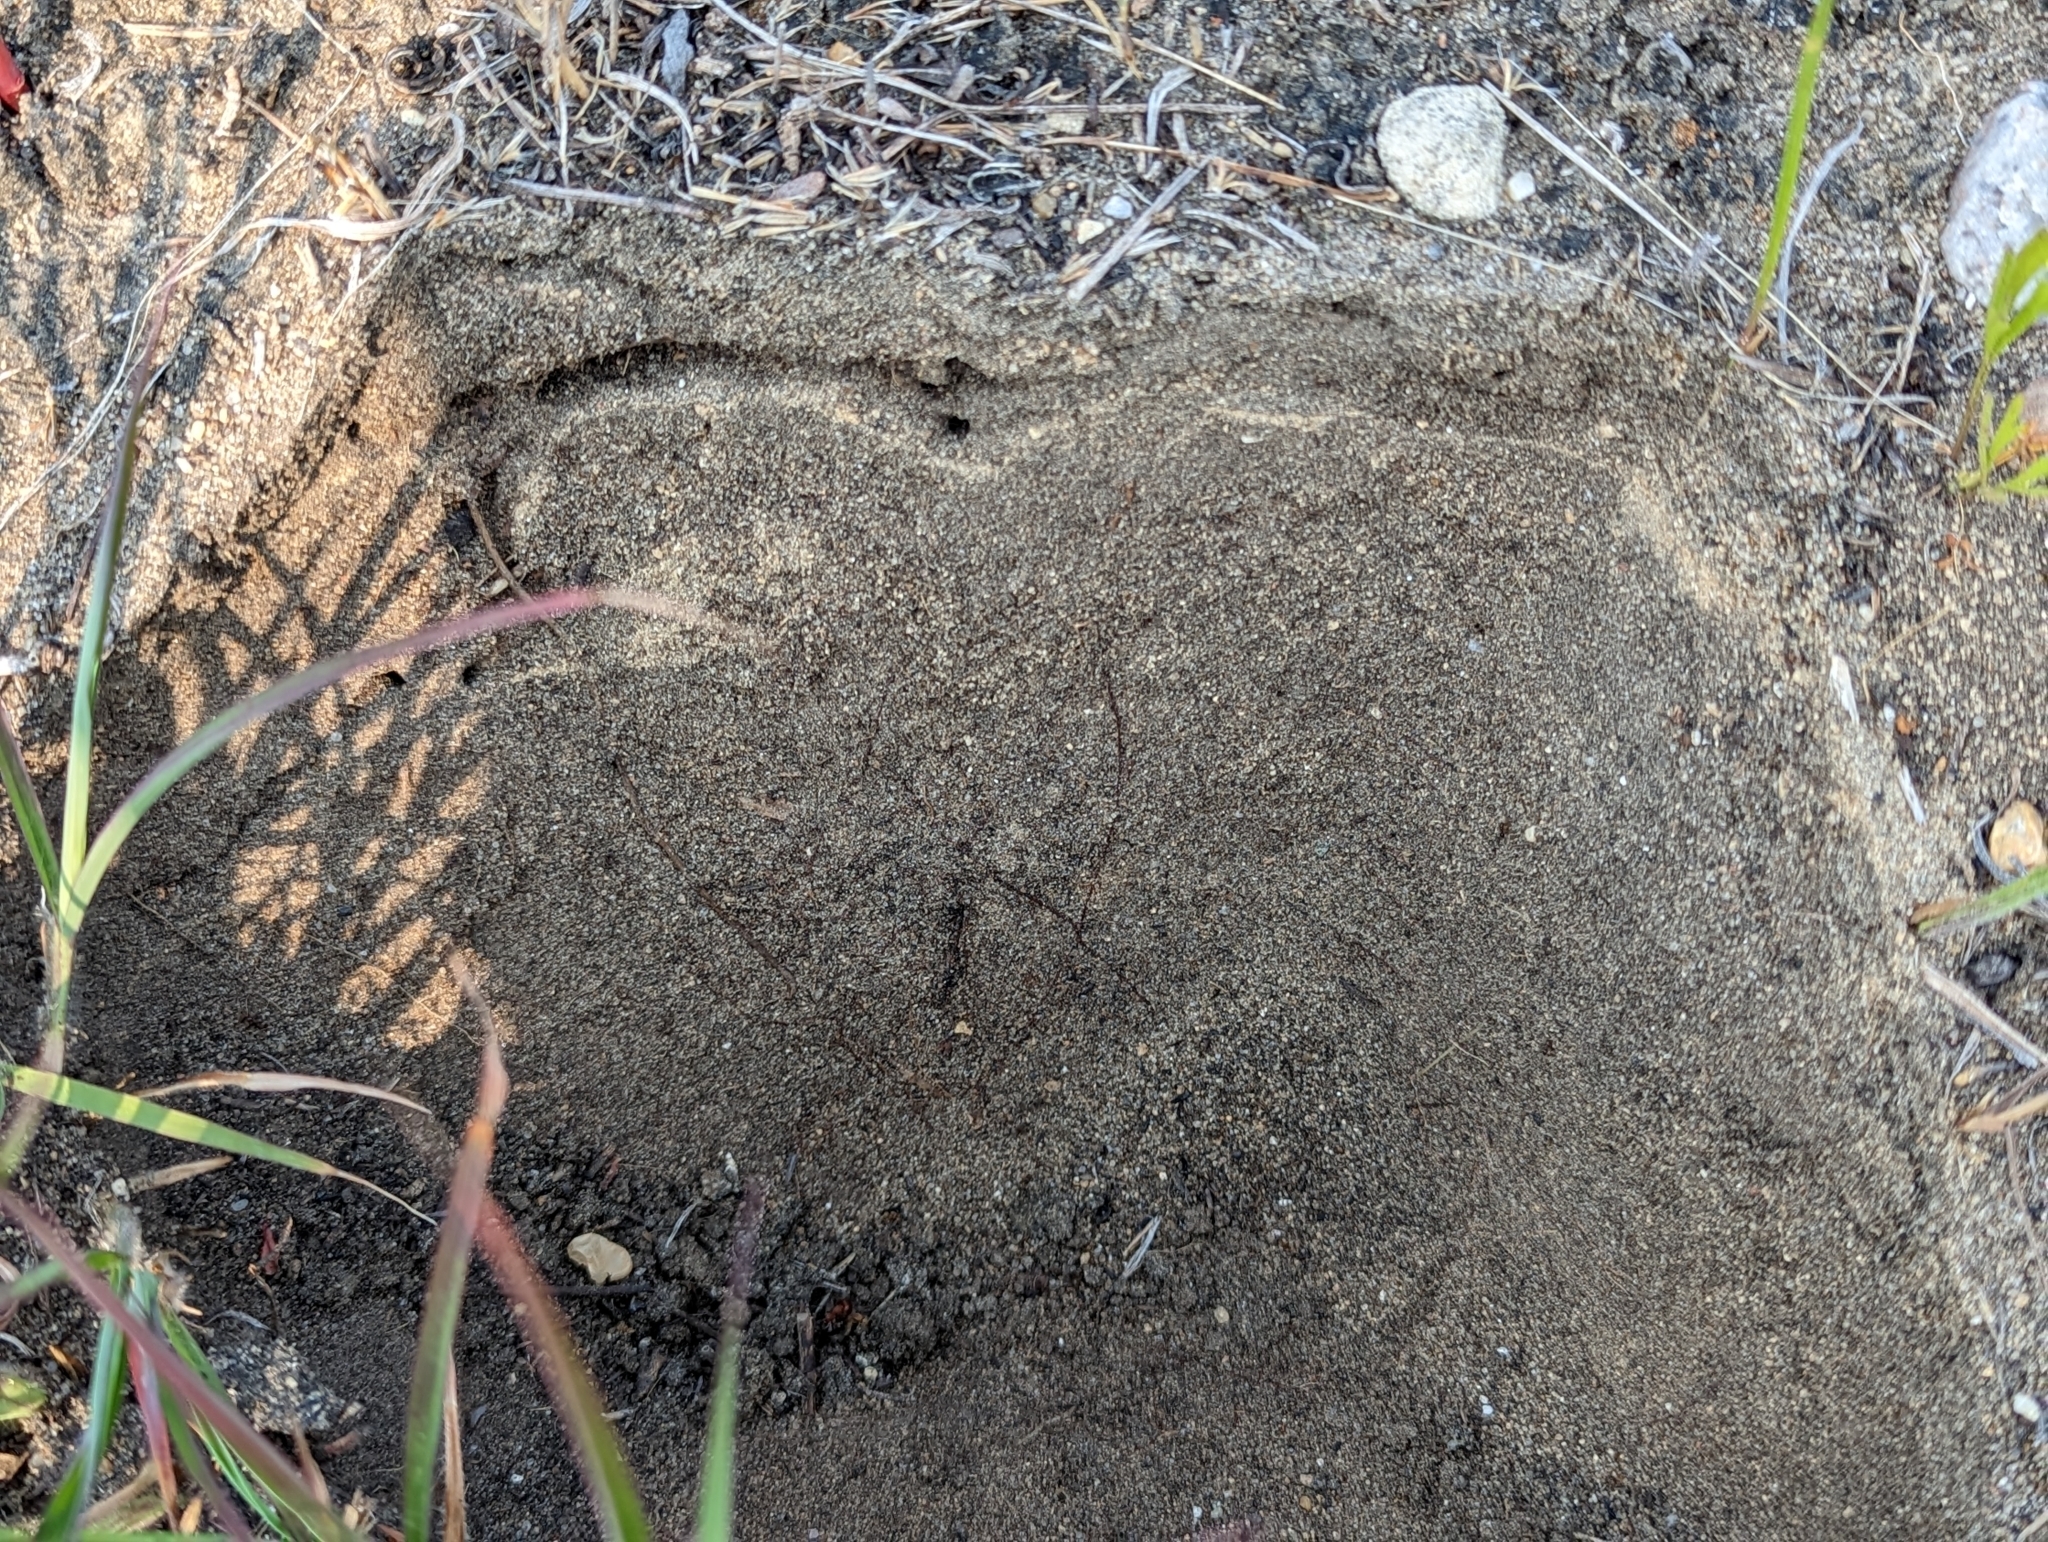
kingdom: Animalia
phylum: Arthropoda
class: Insecta
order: Hymenoptera
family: Formicidae
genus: Forelius
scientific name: Forelius pruinosus
